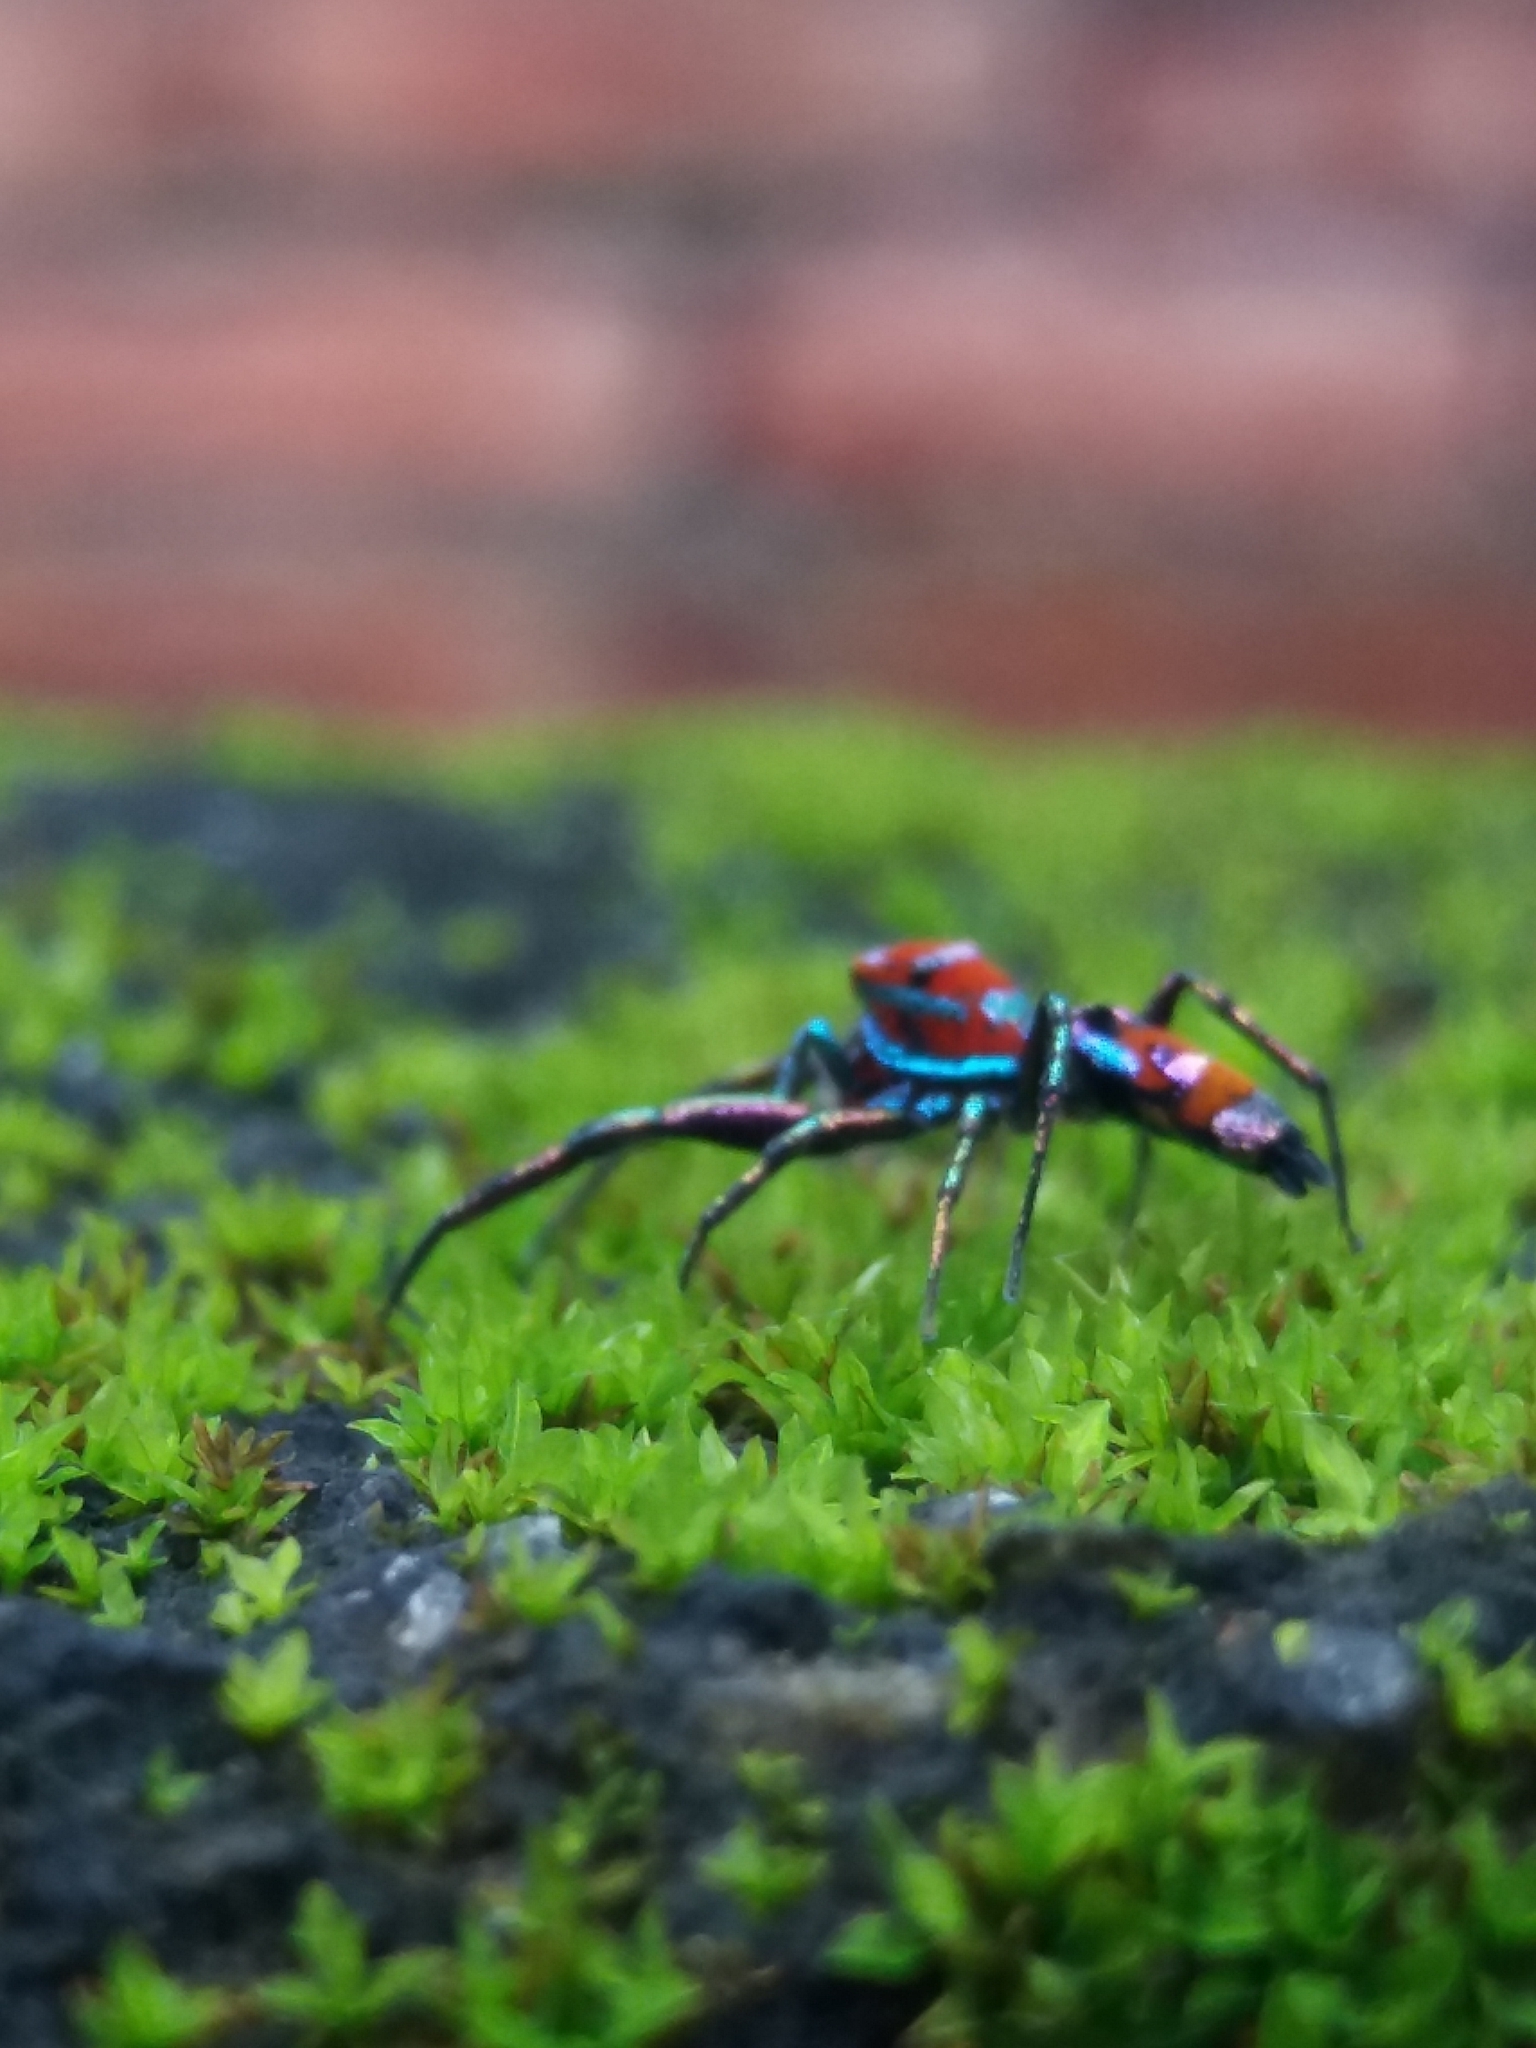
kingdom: Animalia
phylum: Arthropoda
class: Arachnida
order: Araneae
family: Salticidae
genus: Chrysilla
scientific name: Chrysilla volupe
